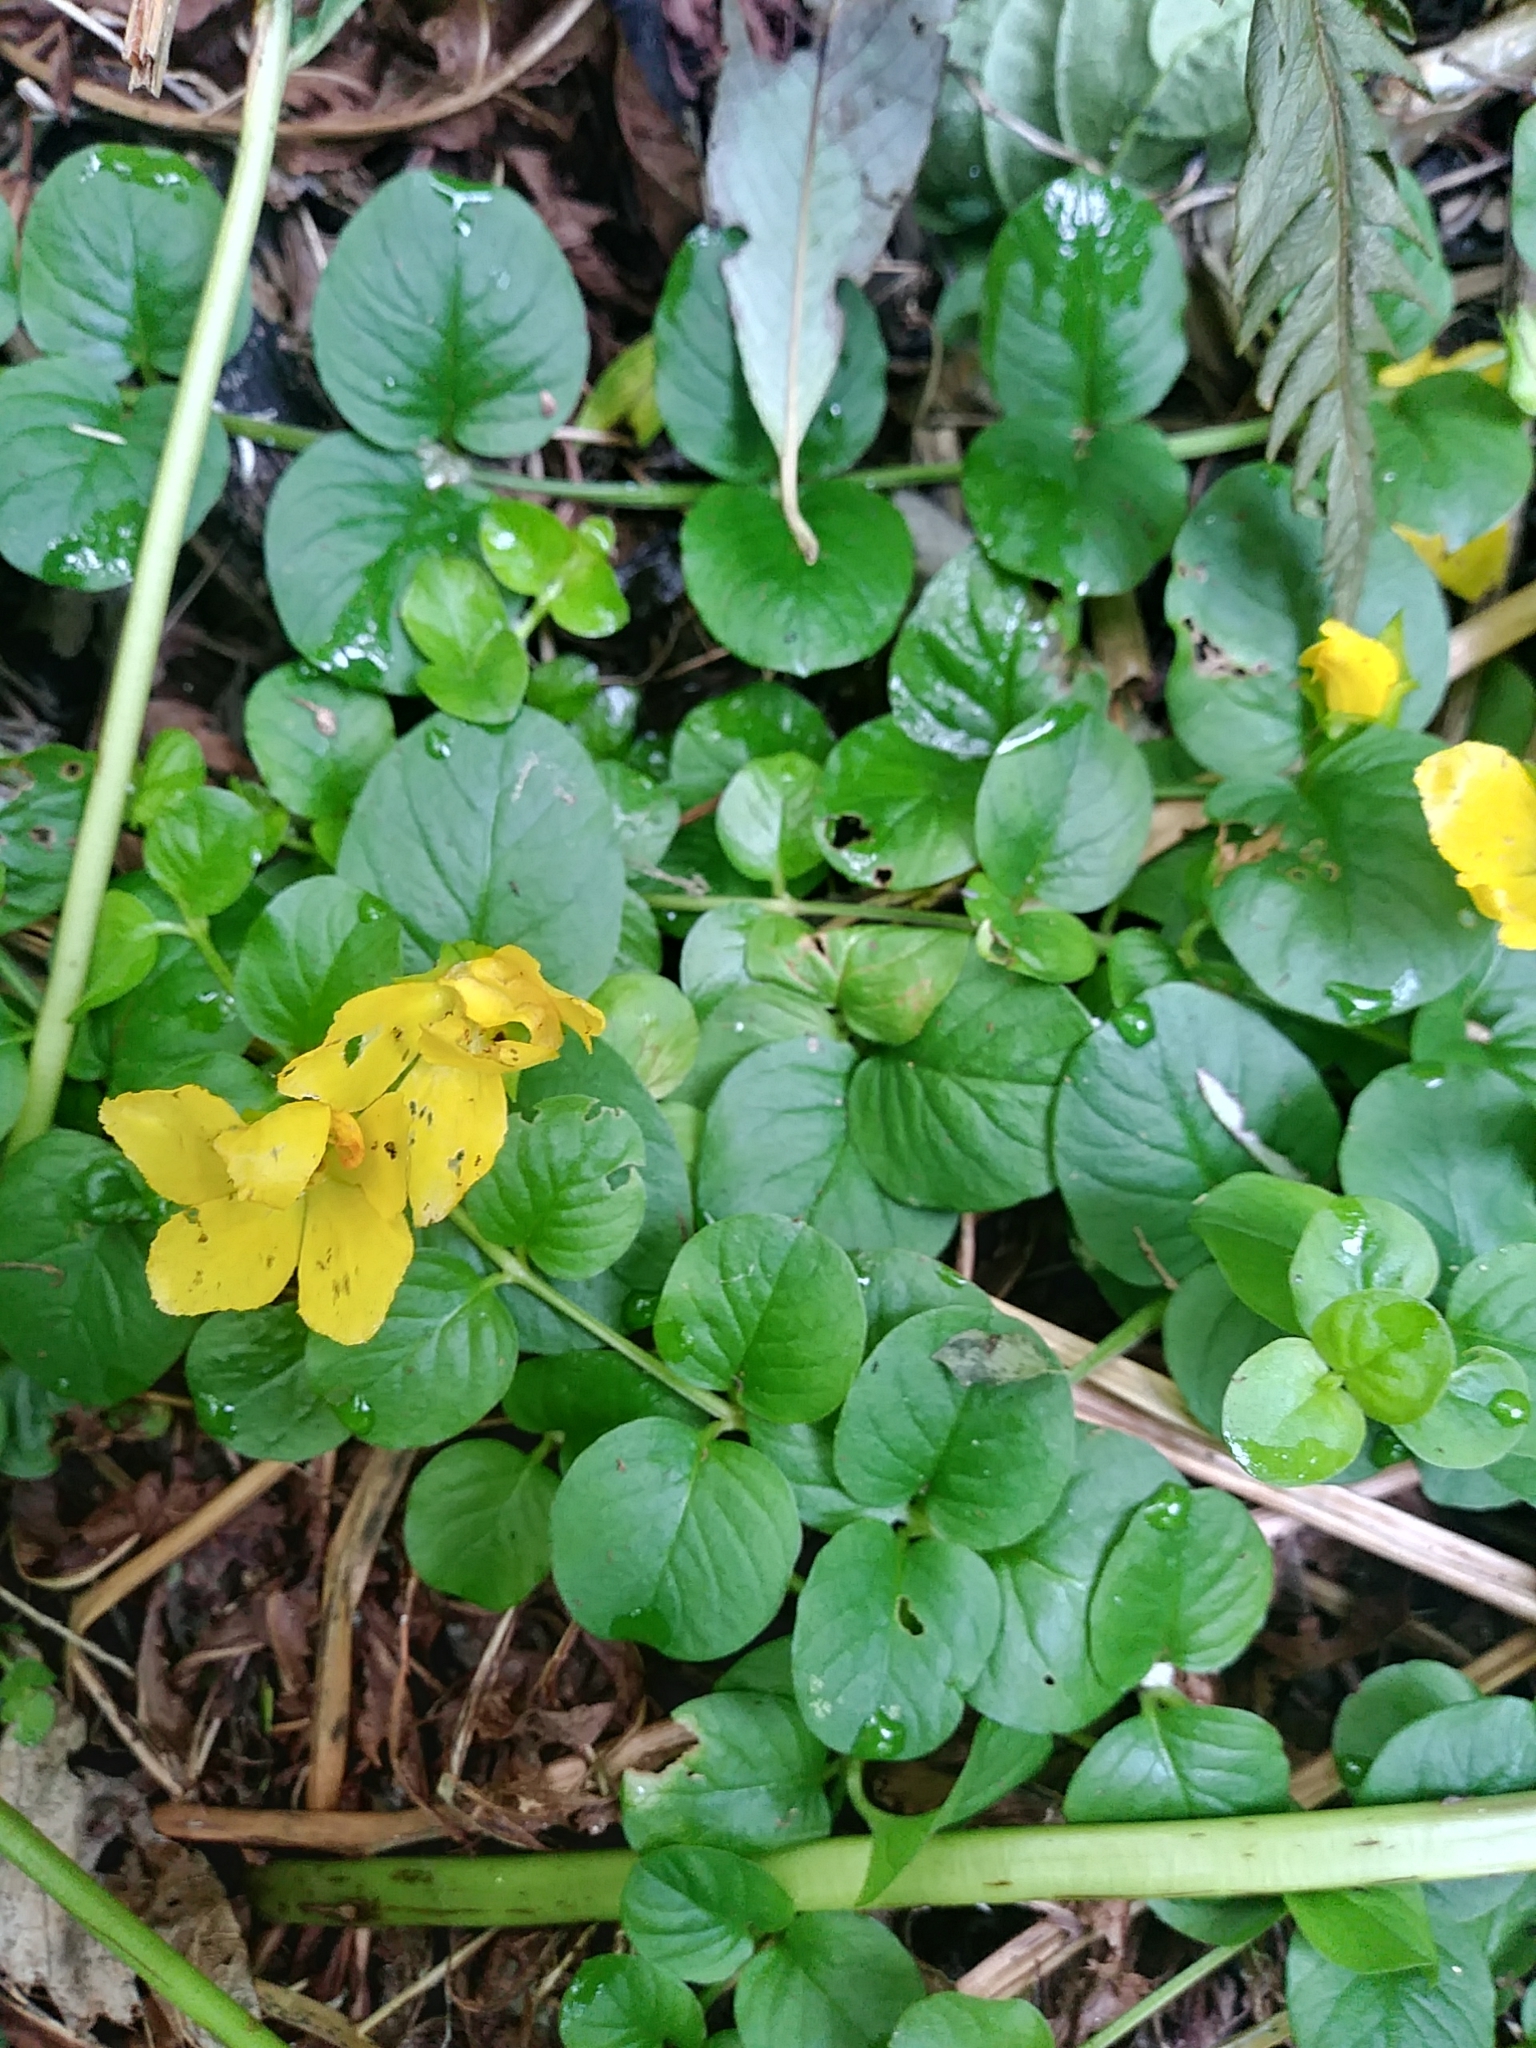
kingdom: Plantae
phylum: Tracheophyta
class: Magnoliopsida
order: Ericales
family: Primulaceae
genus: Lysimachia
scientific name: Lysimachia nummularia
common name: Moneywort
